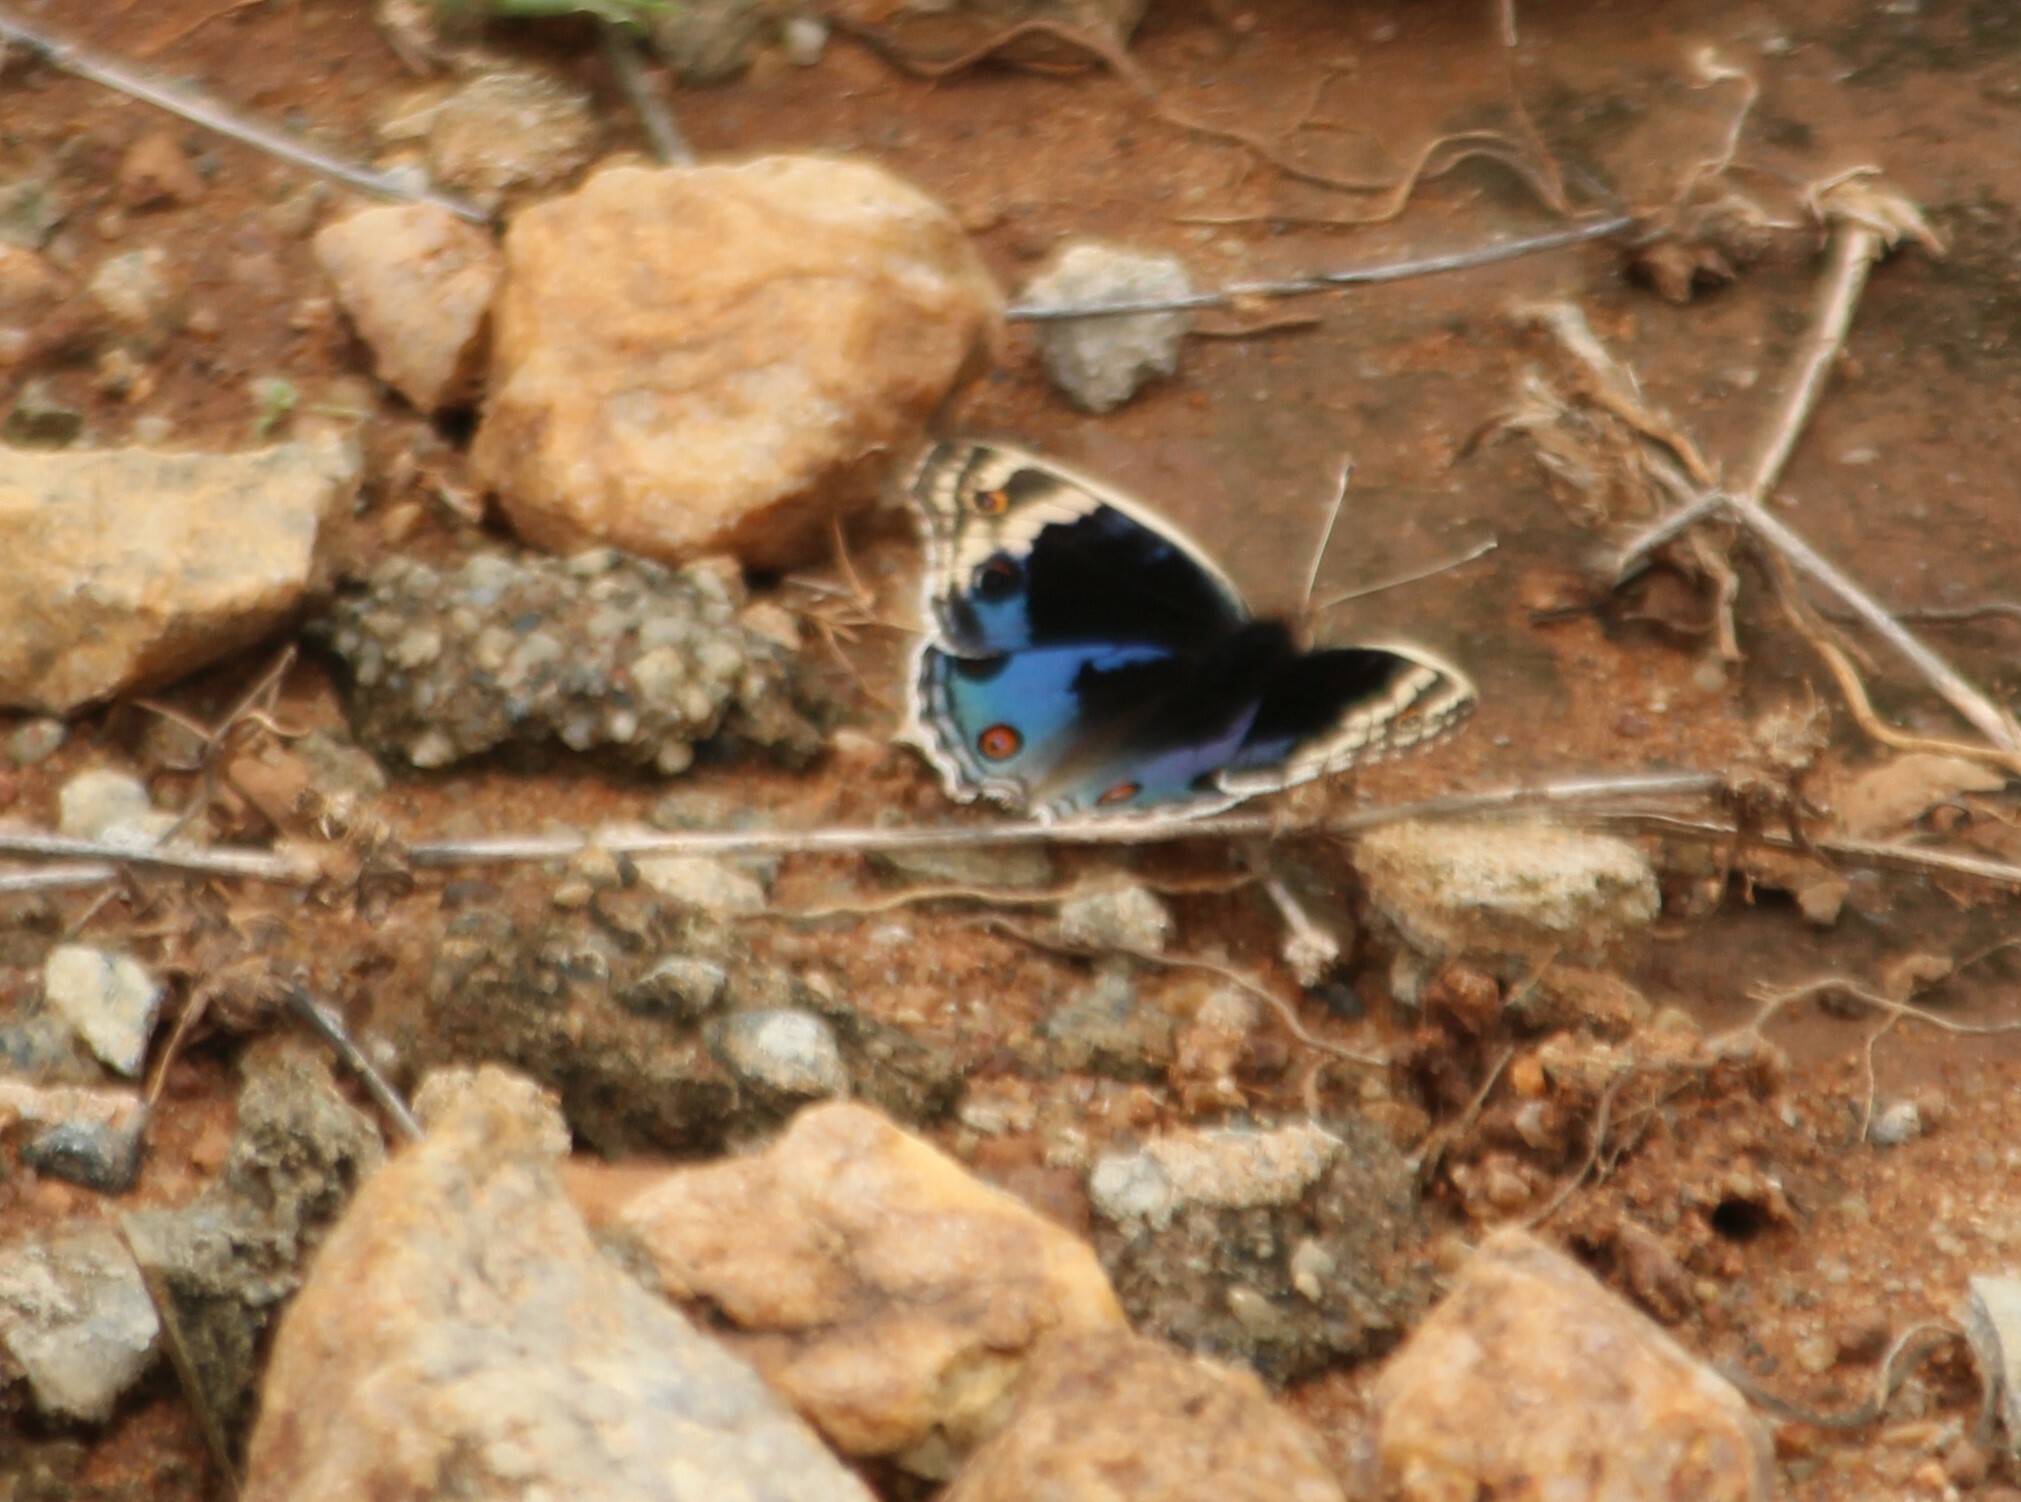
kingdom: Animalia
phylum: Arthropoda
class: Insecta
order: Lepidoptera
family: Nymphalidae
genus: Junonia
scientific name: Junonia orithya
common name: Blue pansy
